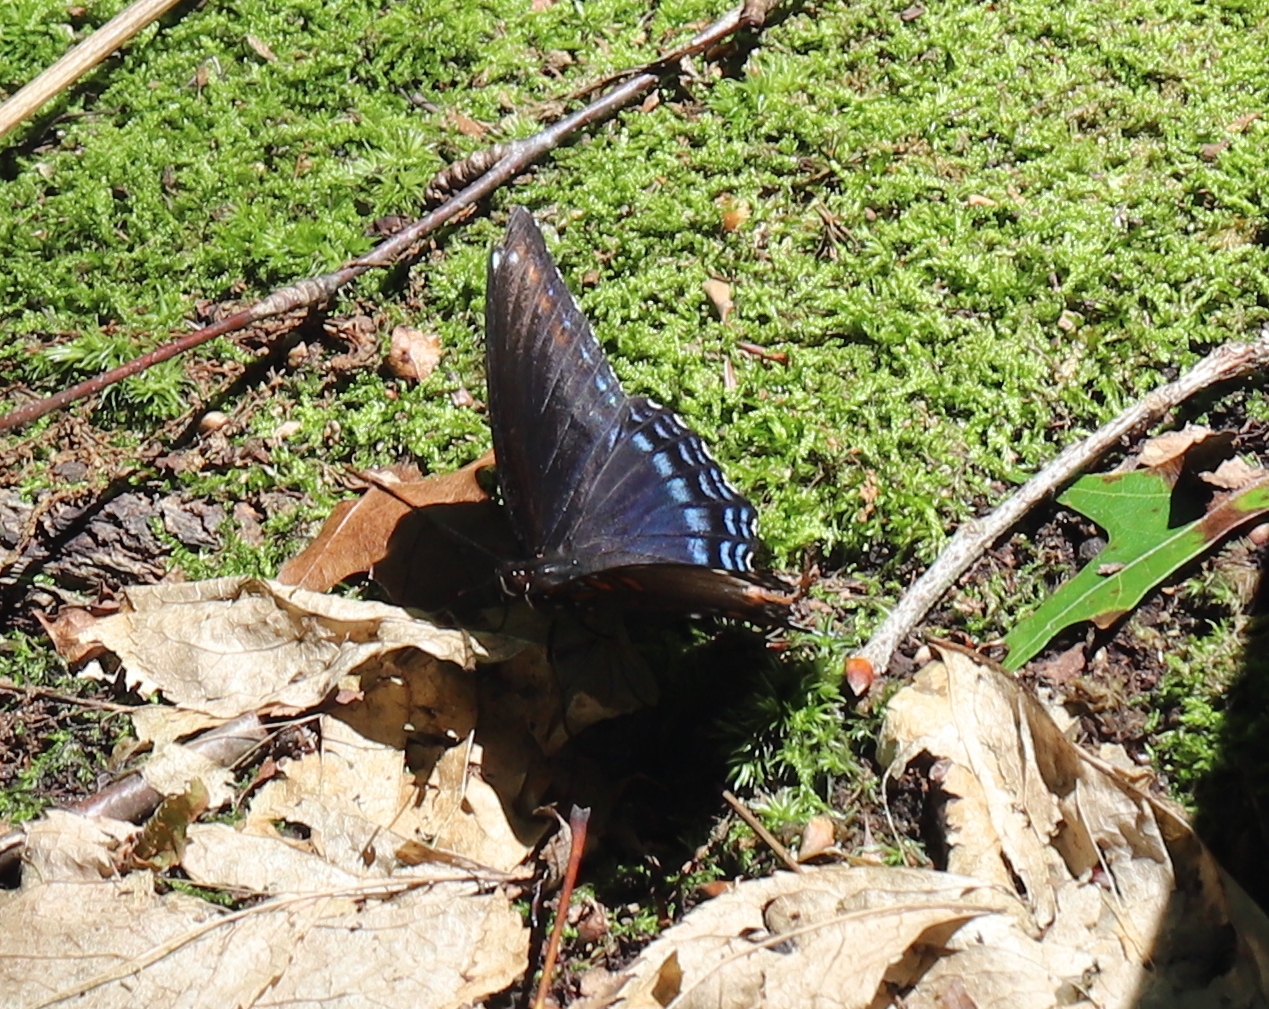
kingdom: Animalia
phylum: Arthropoda
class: Insecta
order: Lepidoptera
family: Nymphalidae
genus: Limenitis
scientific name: Limenitis arthemis
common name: Red-spotted admiral
